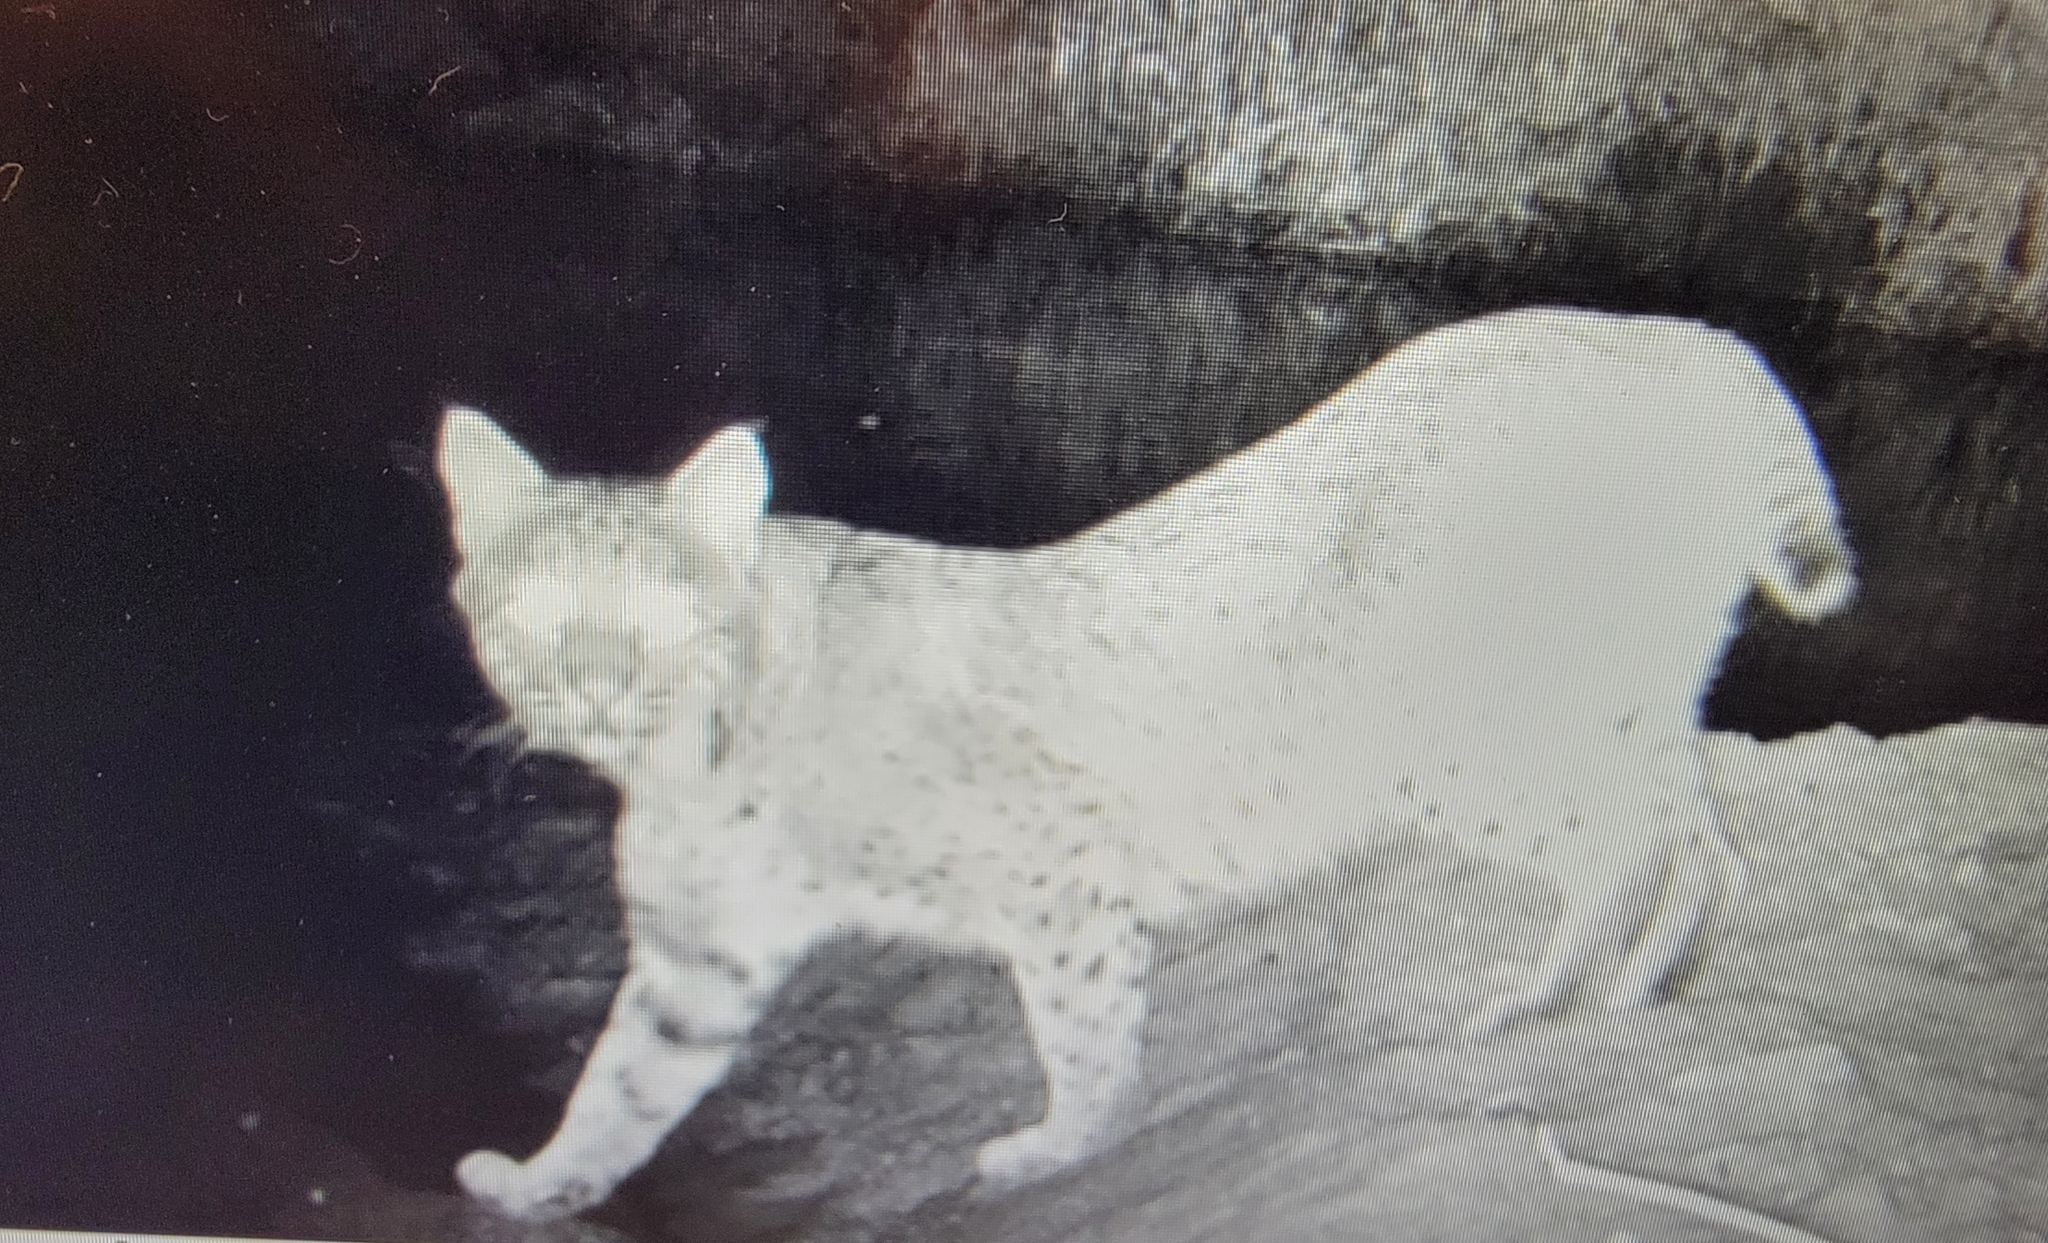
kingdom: Animalia
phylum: Chordata
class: Mammalia
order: Carnivora
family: Felidae
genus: Lynx
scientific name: Lynx rufus
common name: Bobcat
